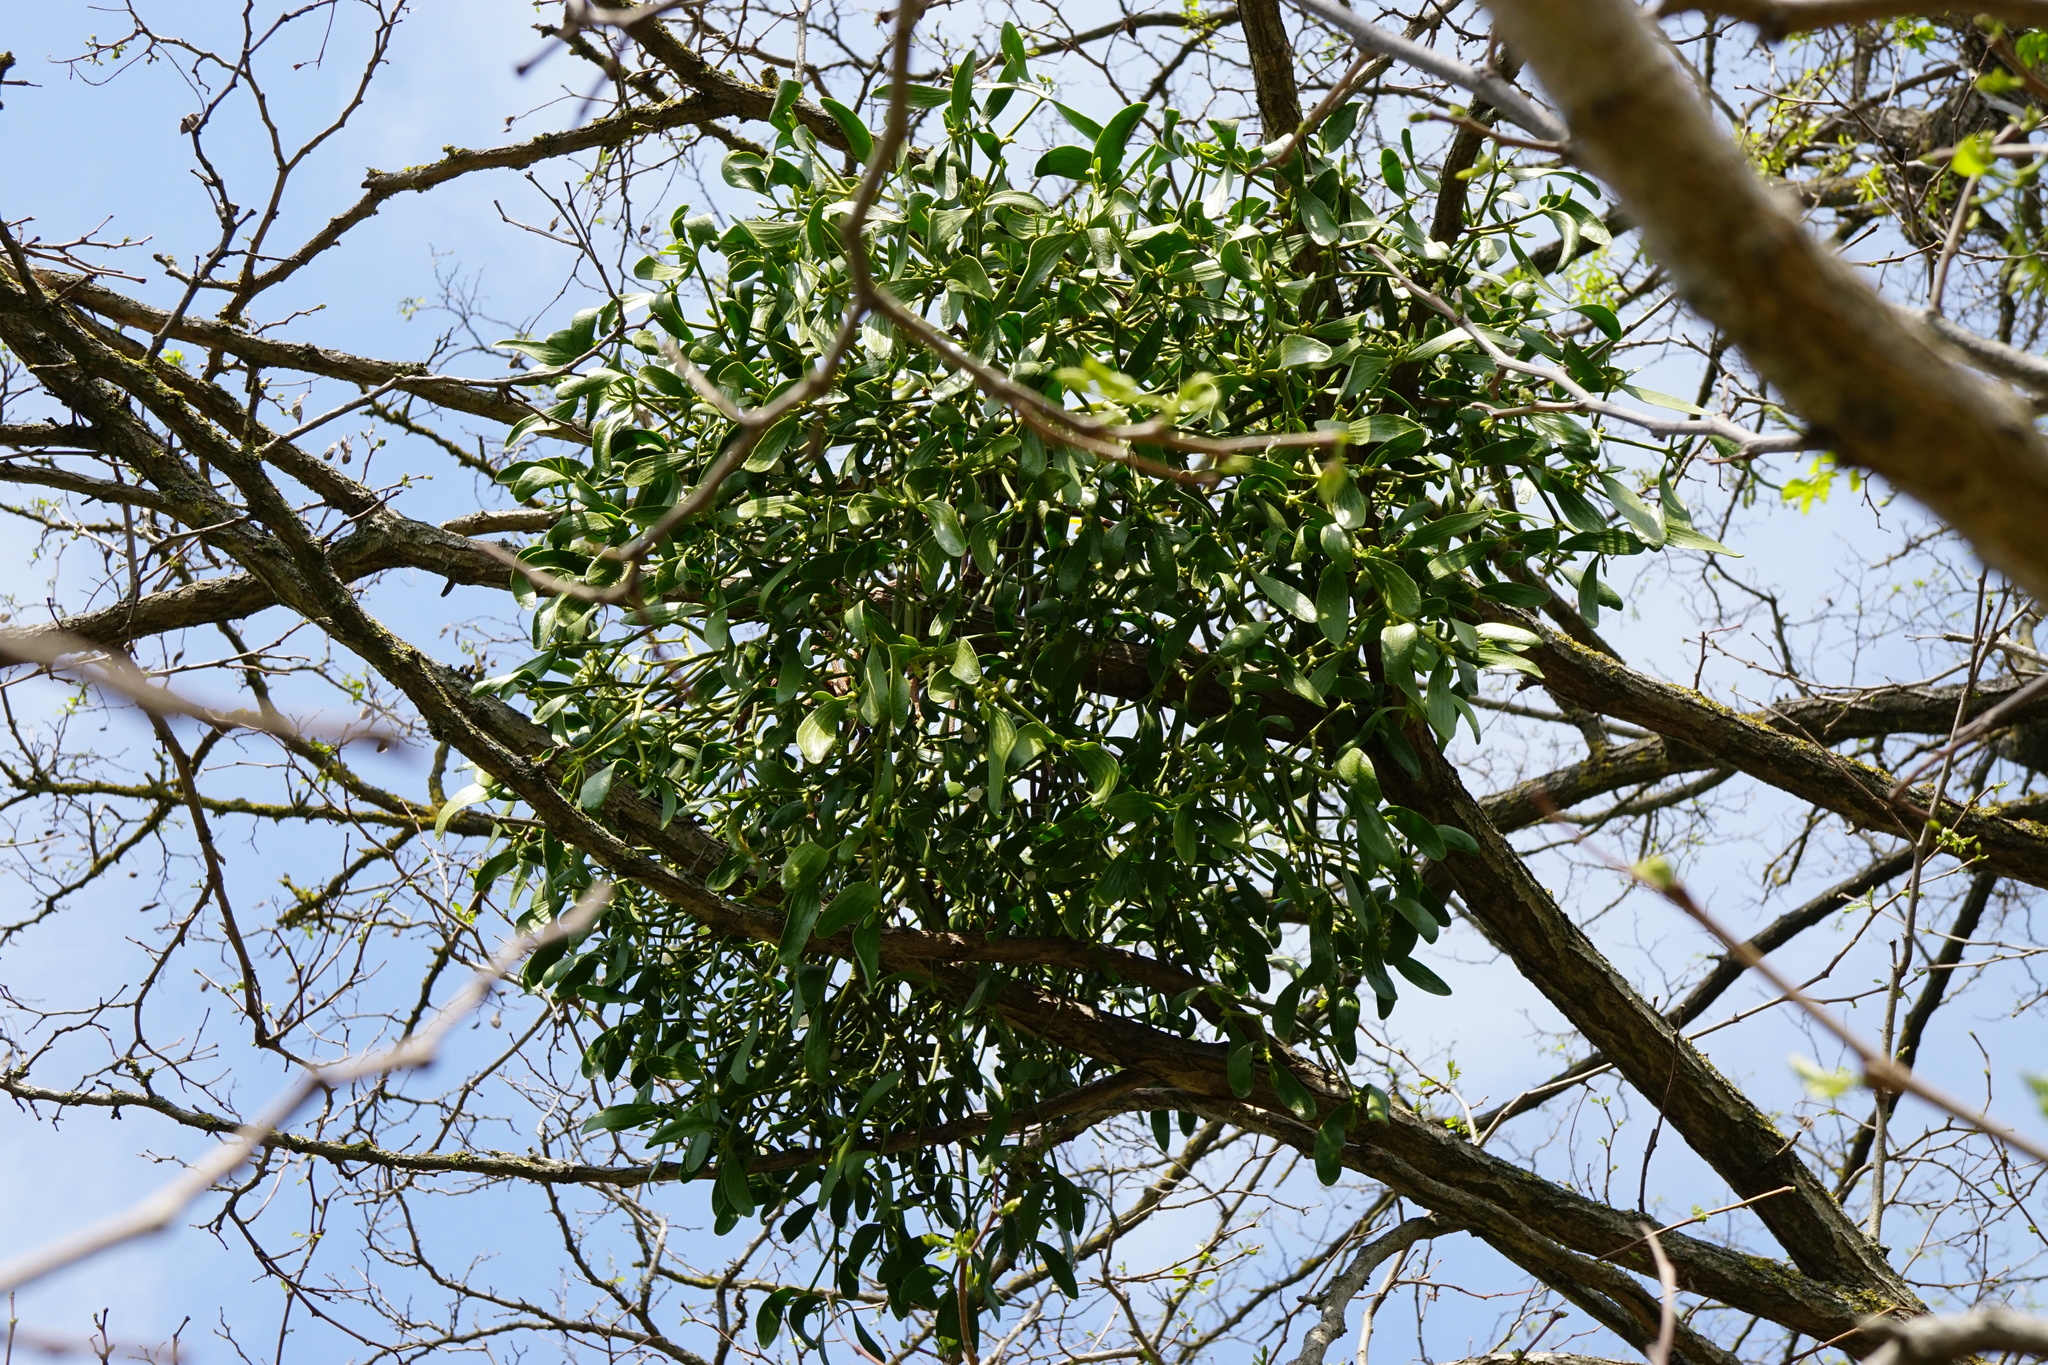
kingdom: Plantae
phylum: Tracheophyta
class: Magnoliopsida
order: Santalales
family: Viscaceae
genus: Viscum
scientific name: Viscum album
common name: Mistletoe
